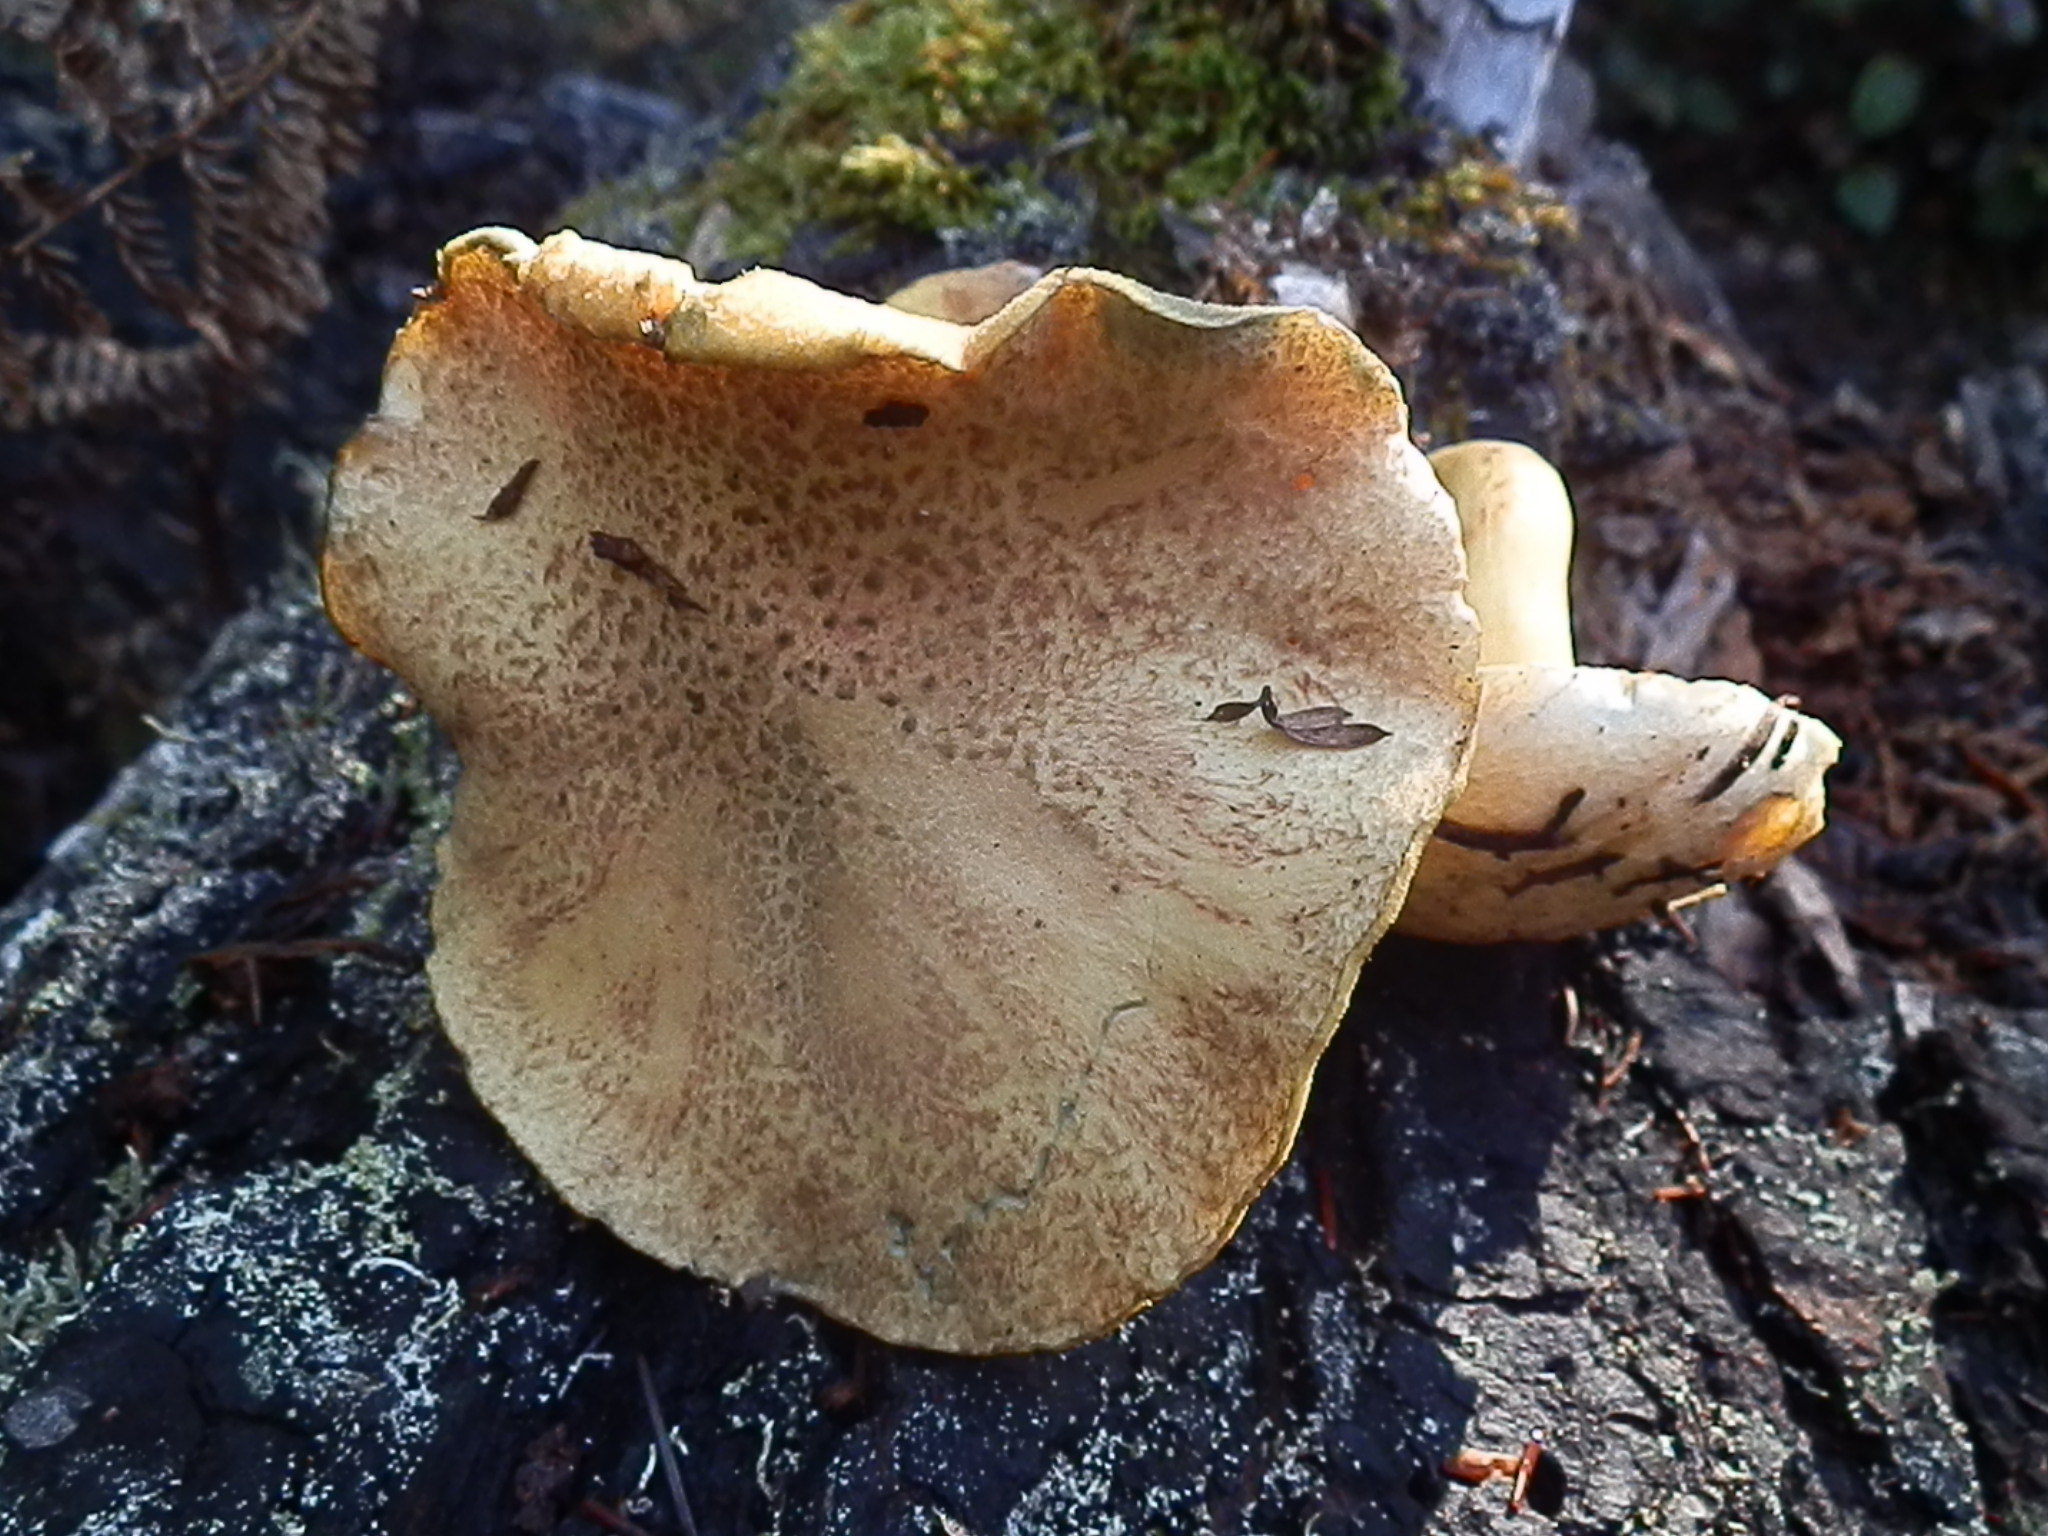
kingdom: Fungi
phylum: Basidiomycota
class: Agaricomycetes
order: Boletales
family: Suillaceae
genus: Suillus
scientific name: Suillus tomentosus
